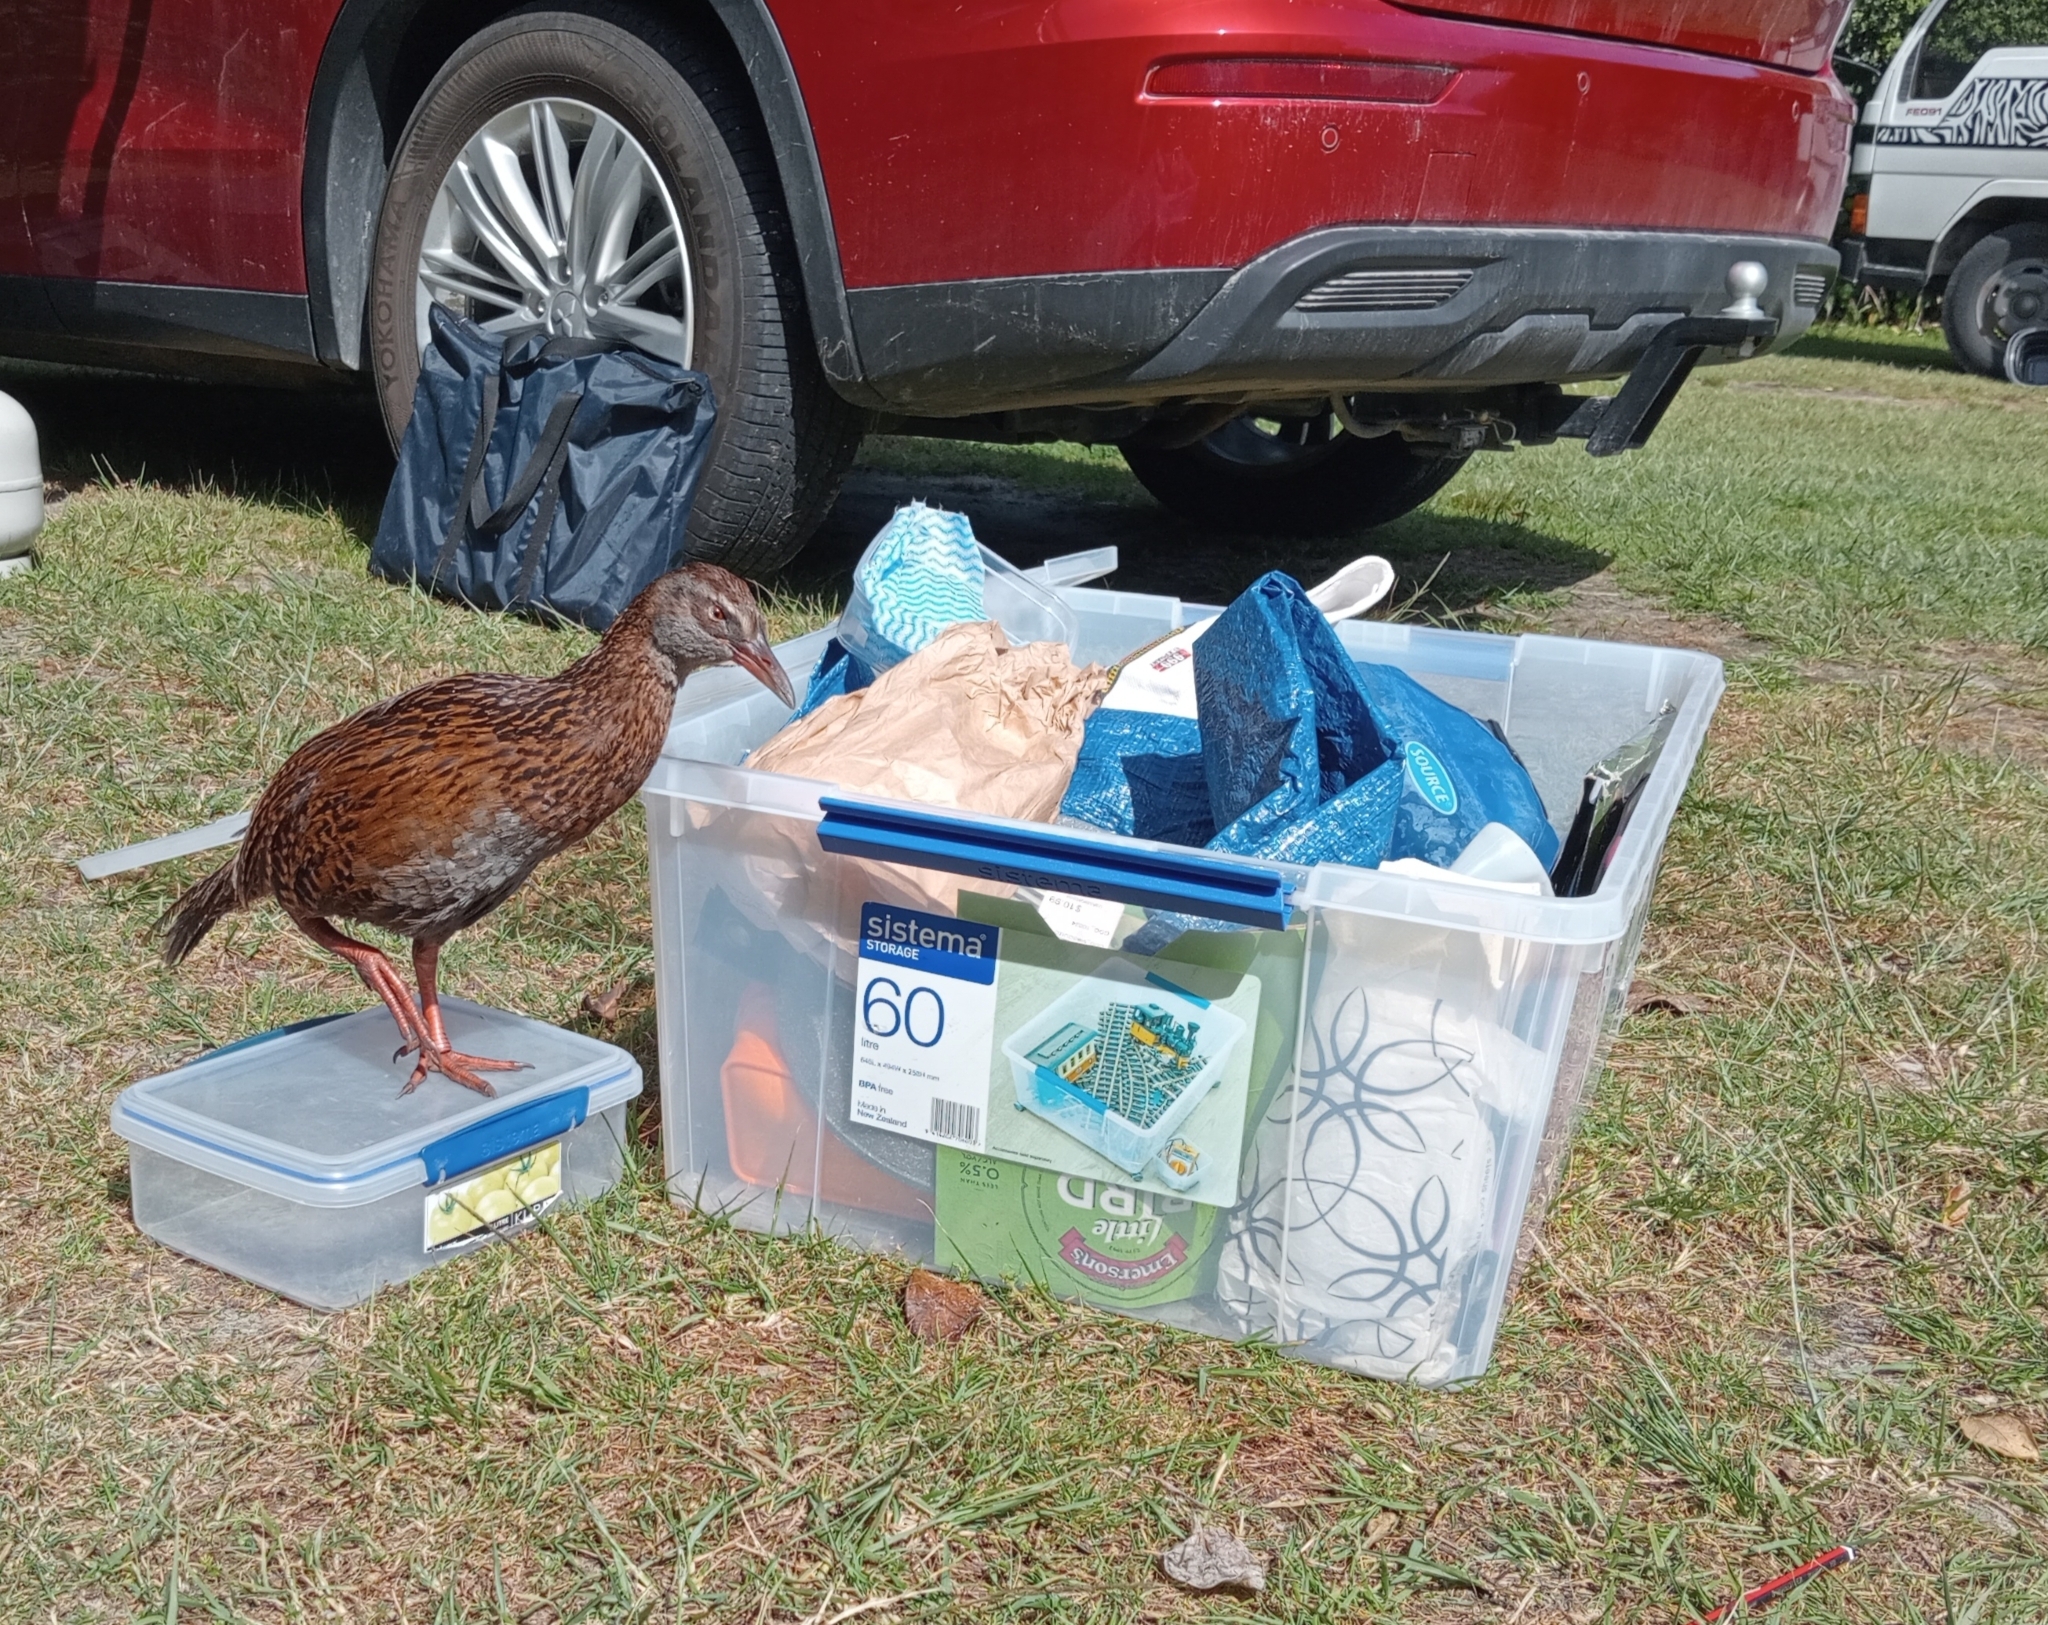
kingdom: Animalia
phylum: Chordata
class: Aves
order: Gruiformes
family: Rallidae
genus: Gallirallus
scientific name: Gallirallus australis
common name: Weka
